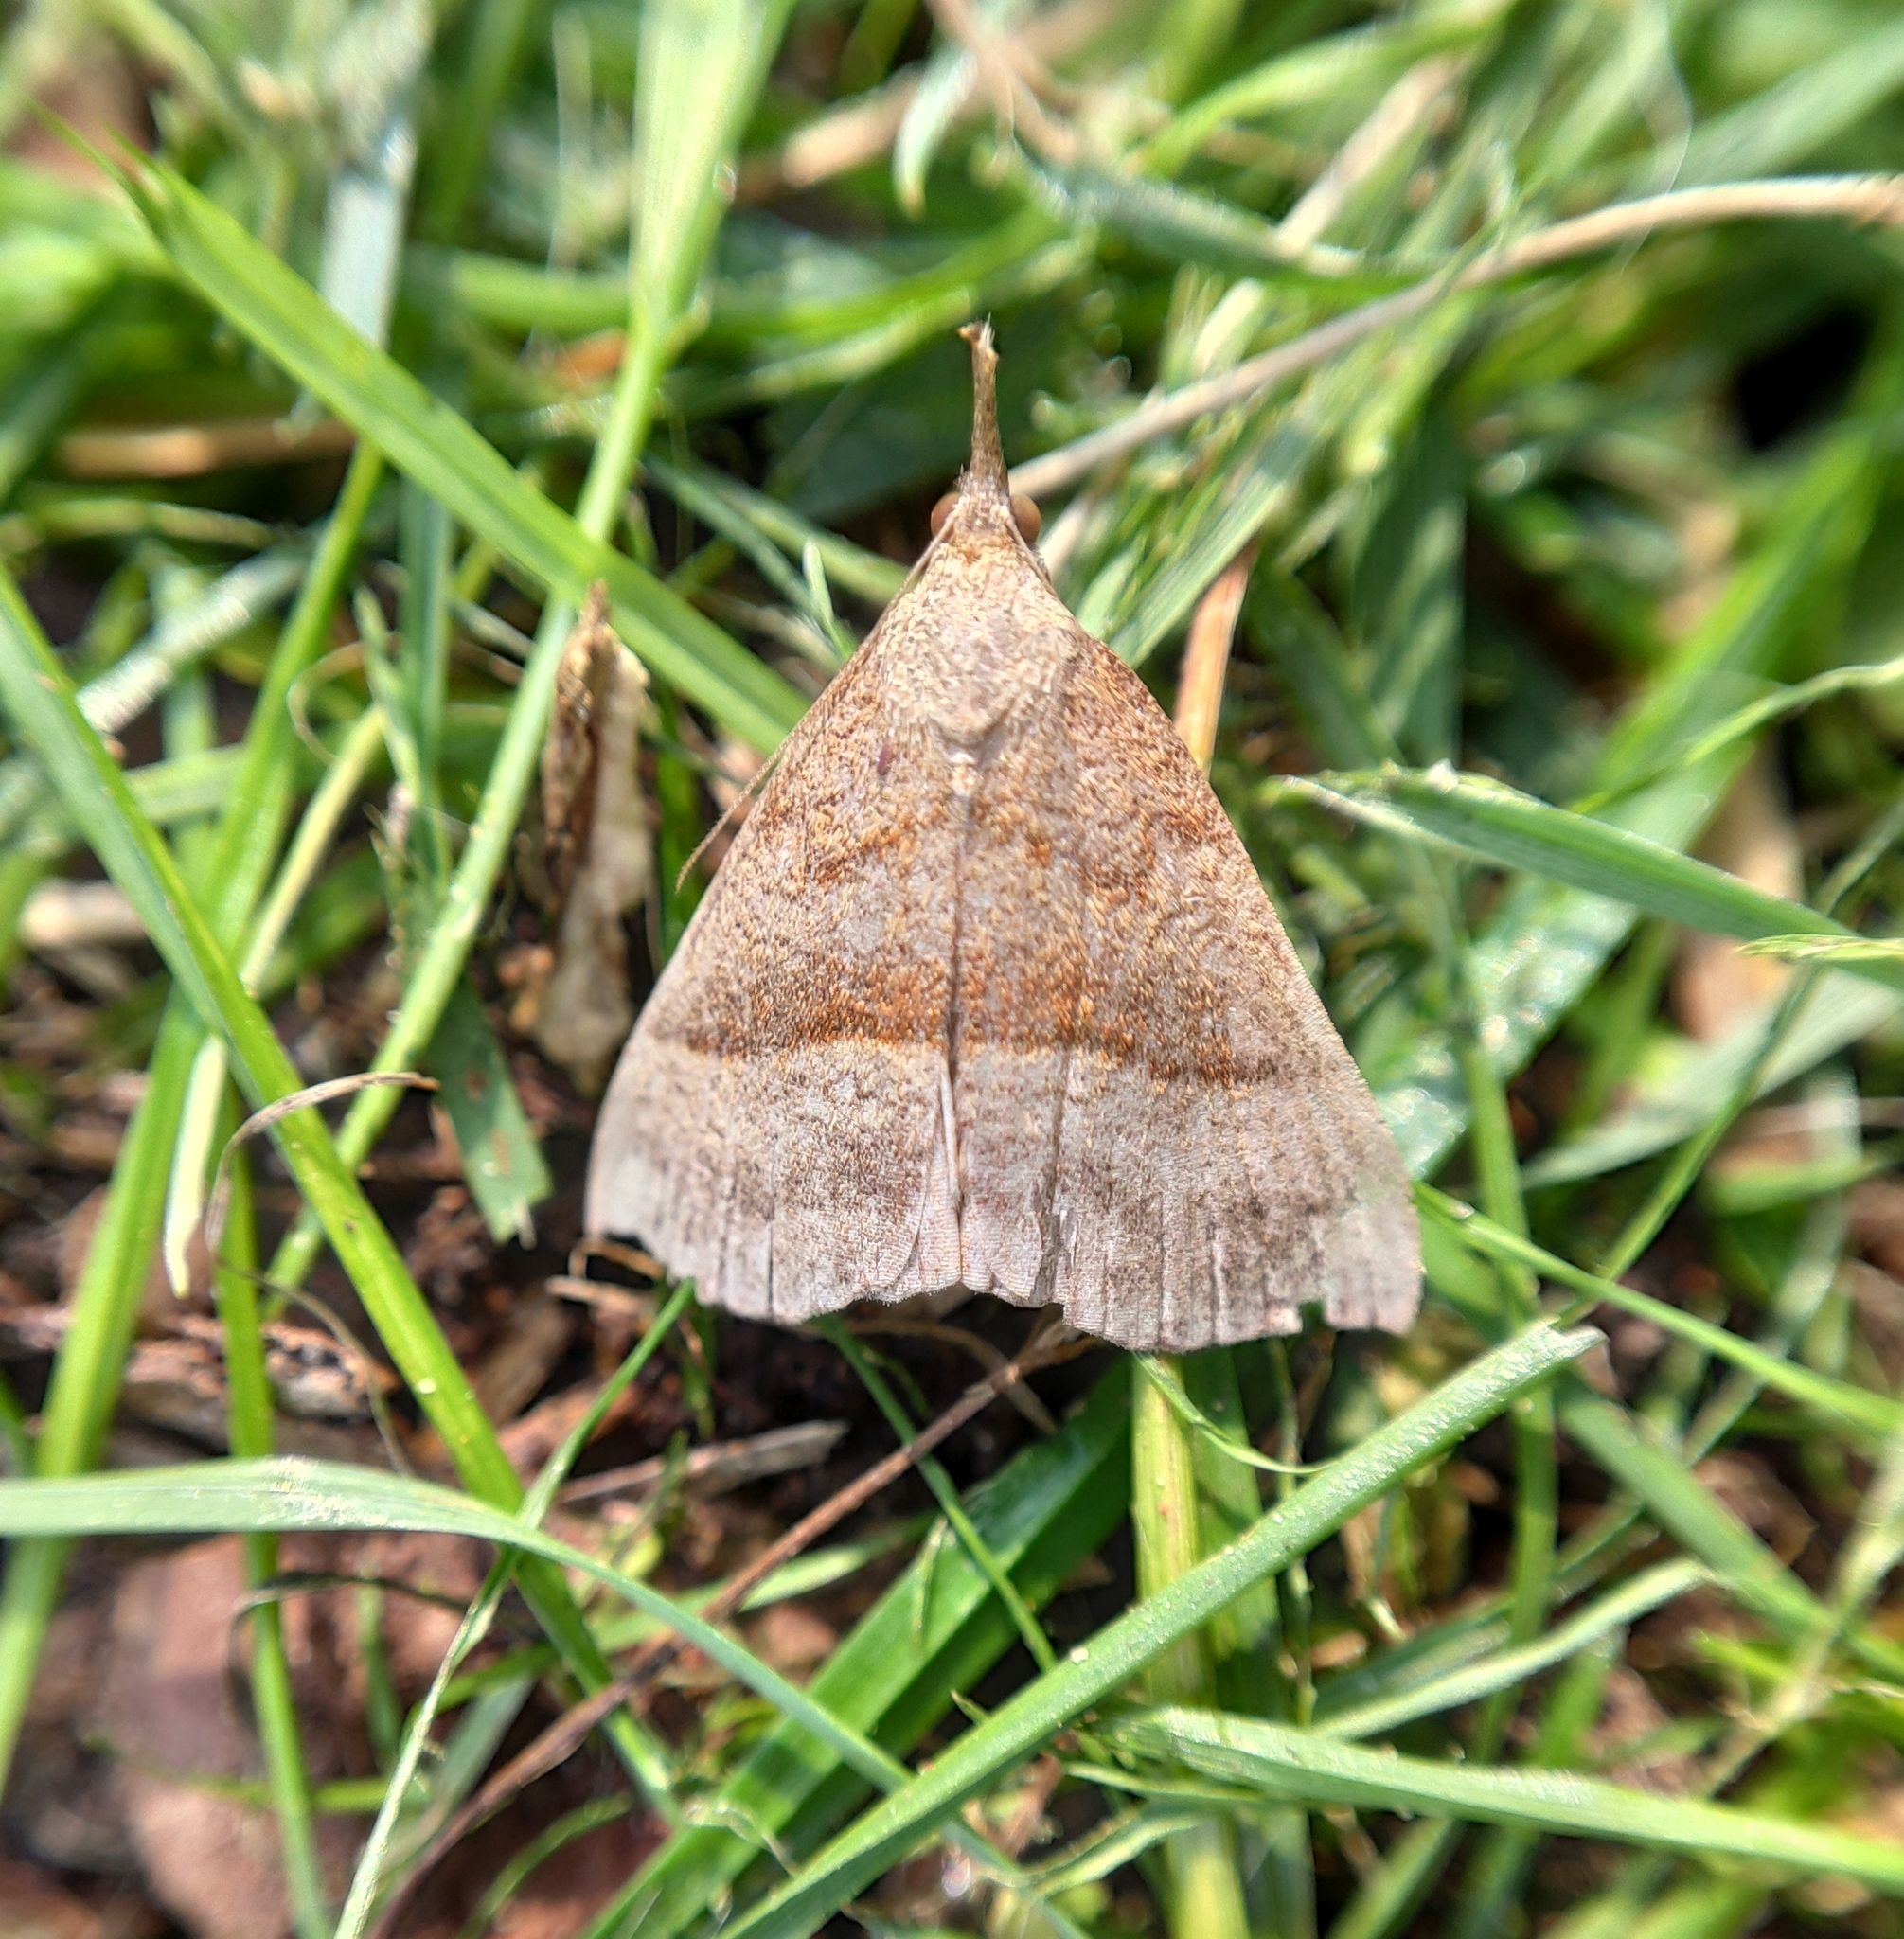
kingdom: Animalia
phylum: Arthropoda
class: Insecta
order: Lepidoptera
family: Erebidae
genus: Hypena
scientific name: Hypena proboscidalis
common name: Snout
